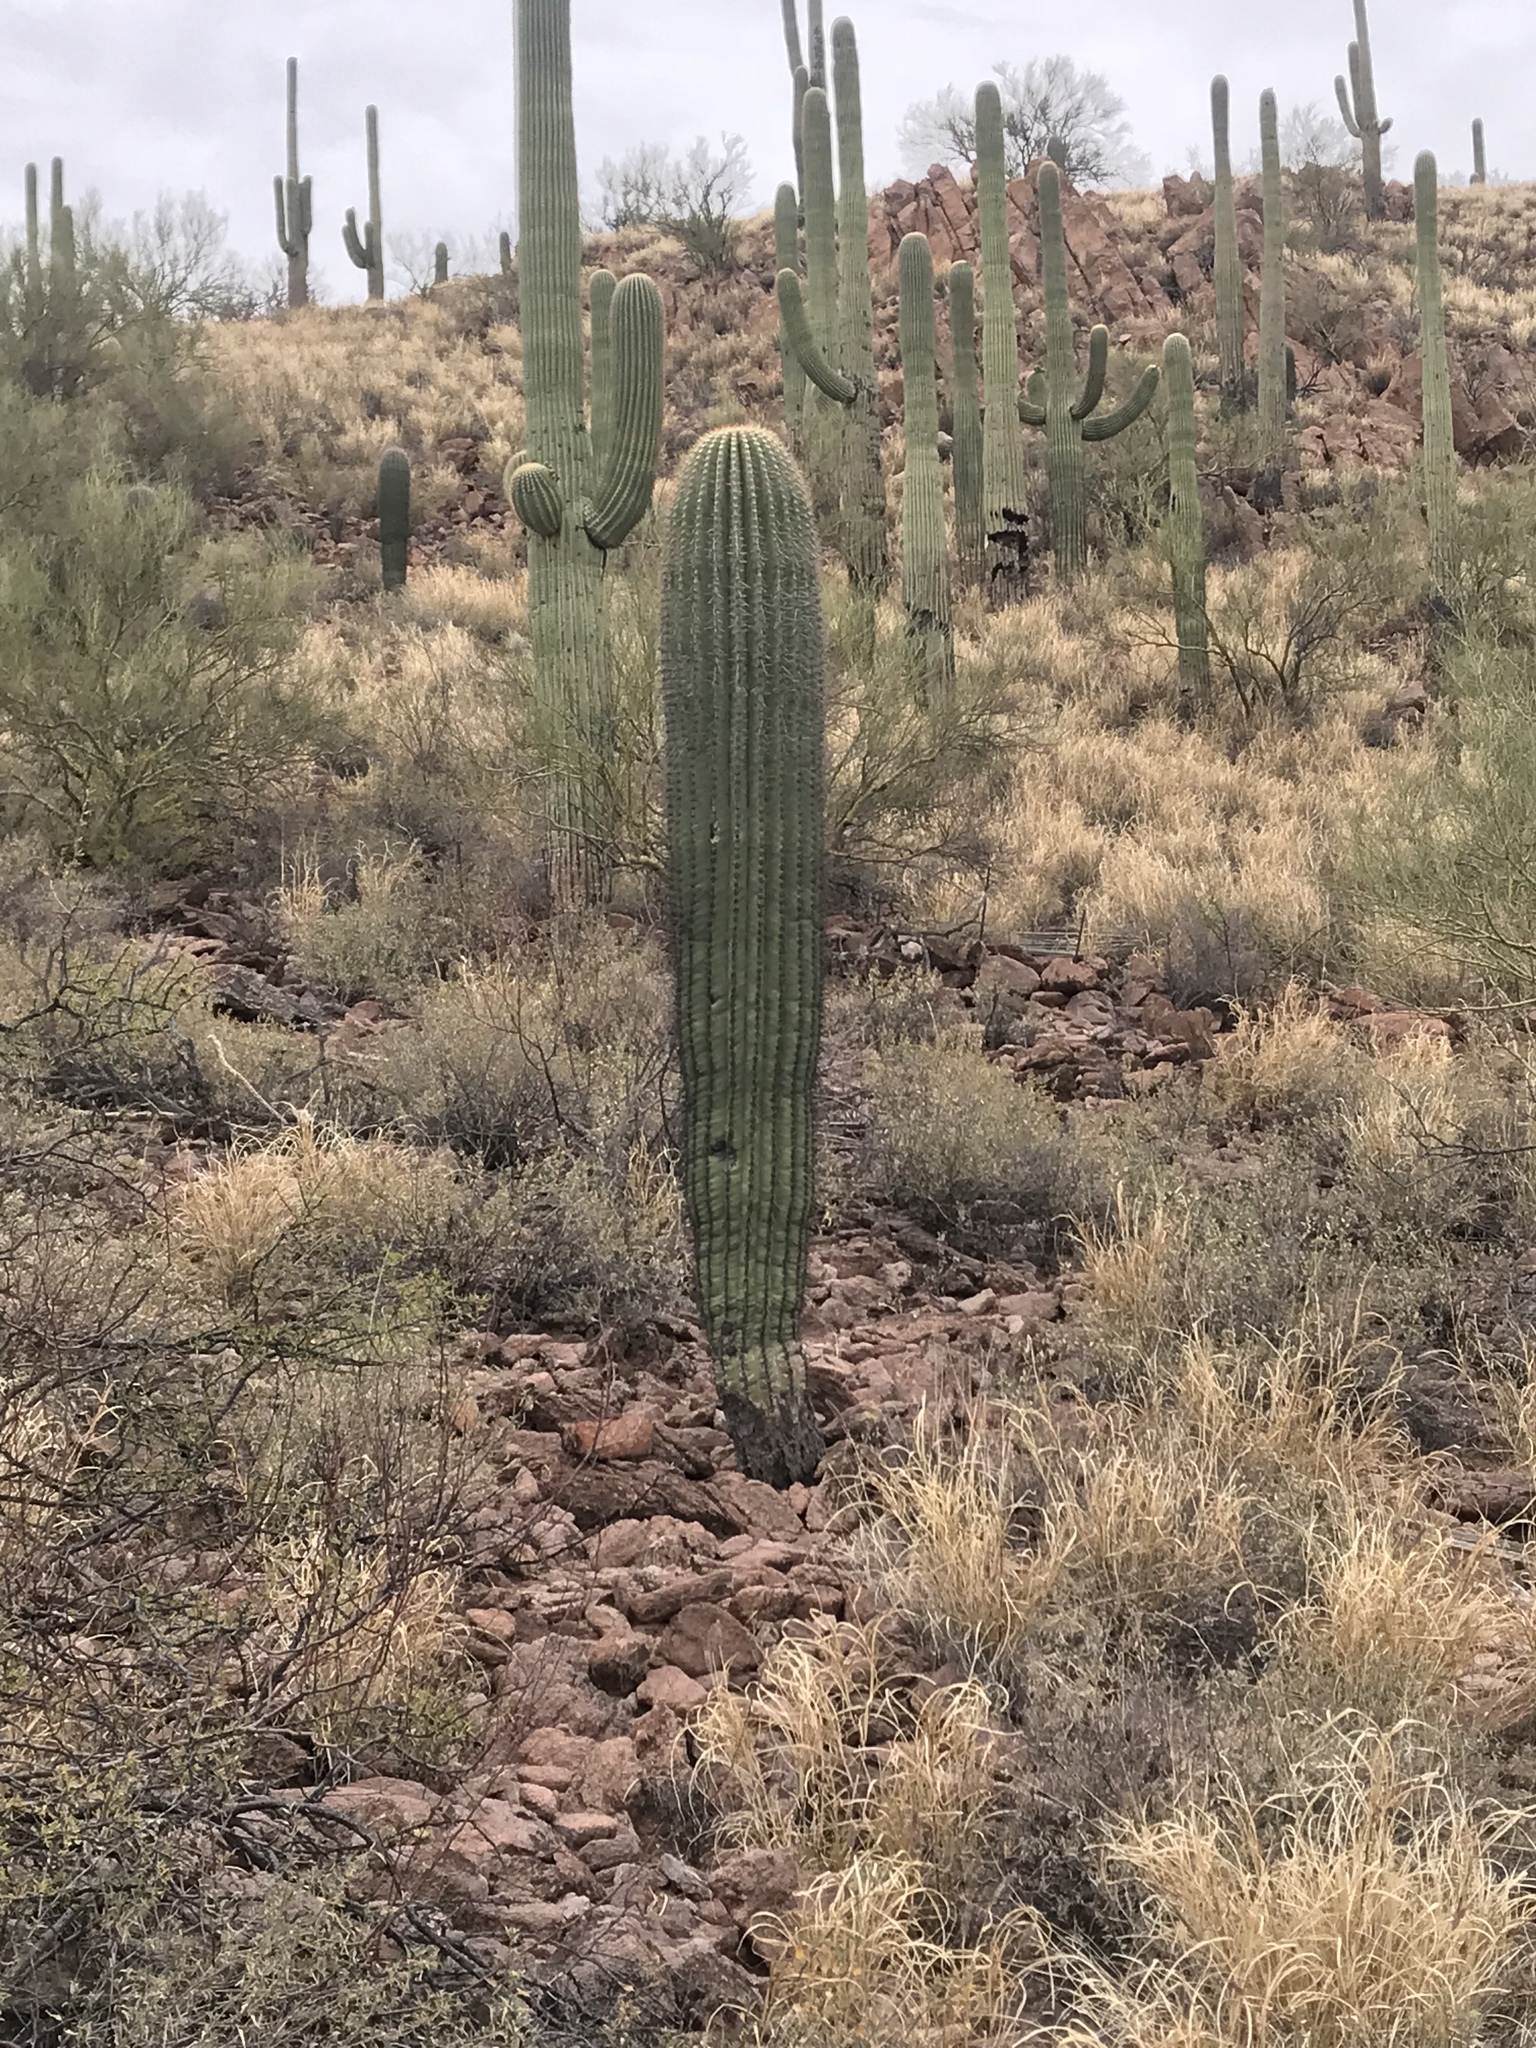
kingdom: Plantae
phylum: Tracheophyta
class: Magnoliopsida
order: Caryophyllales
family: Cactaceae
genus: Carnegiea
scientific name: Carnegiea gigantea
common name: Saguaro
